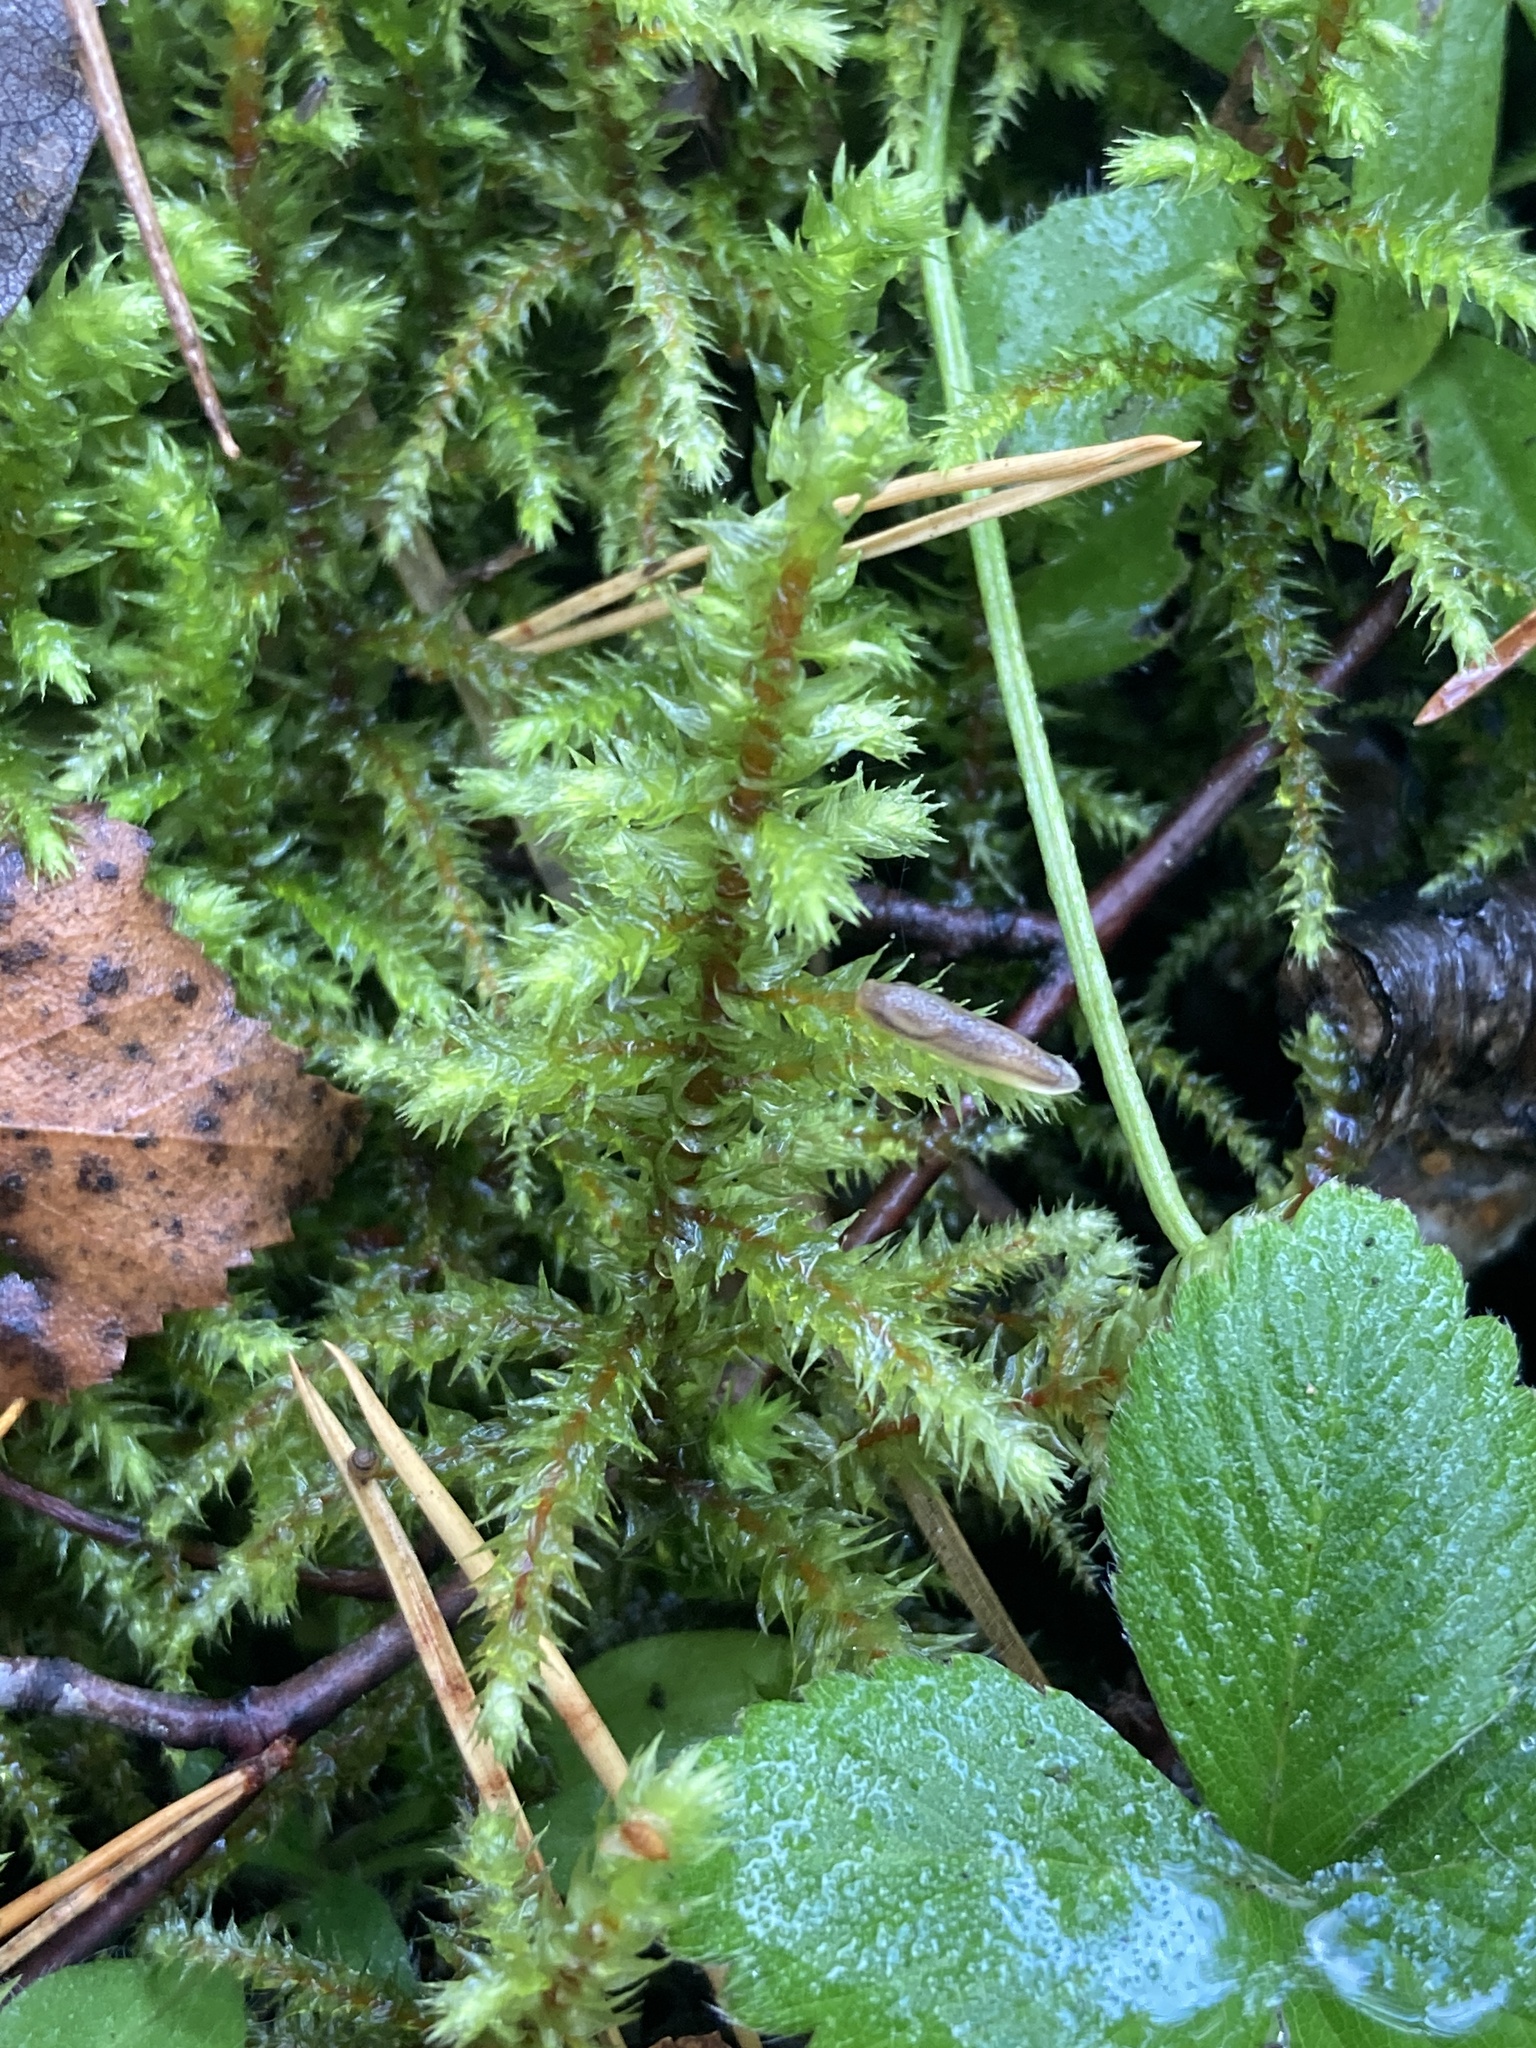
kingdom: Plantae
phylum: Bryophyta
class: Bryopsida
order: Hypnales
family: Hylocomiaceae
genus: Hylocomiadelphus
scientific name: Hylocomiadelphus triquetrus
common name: Rough goose neck moss
